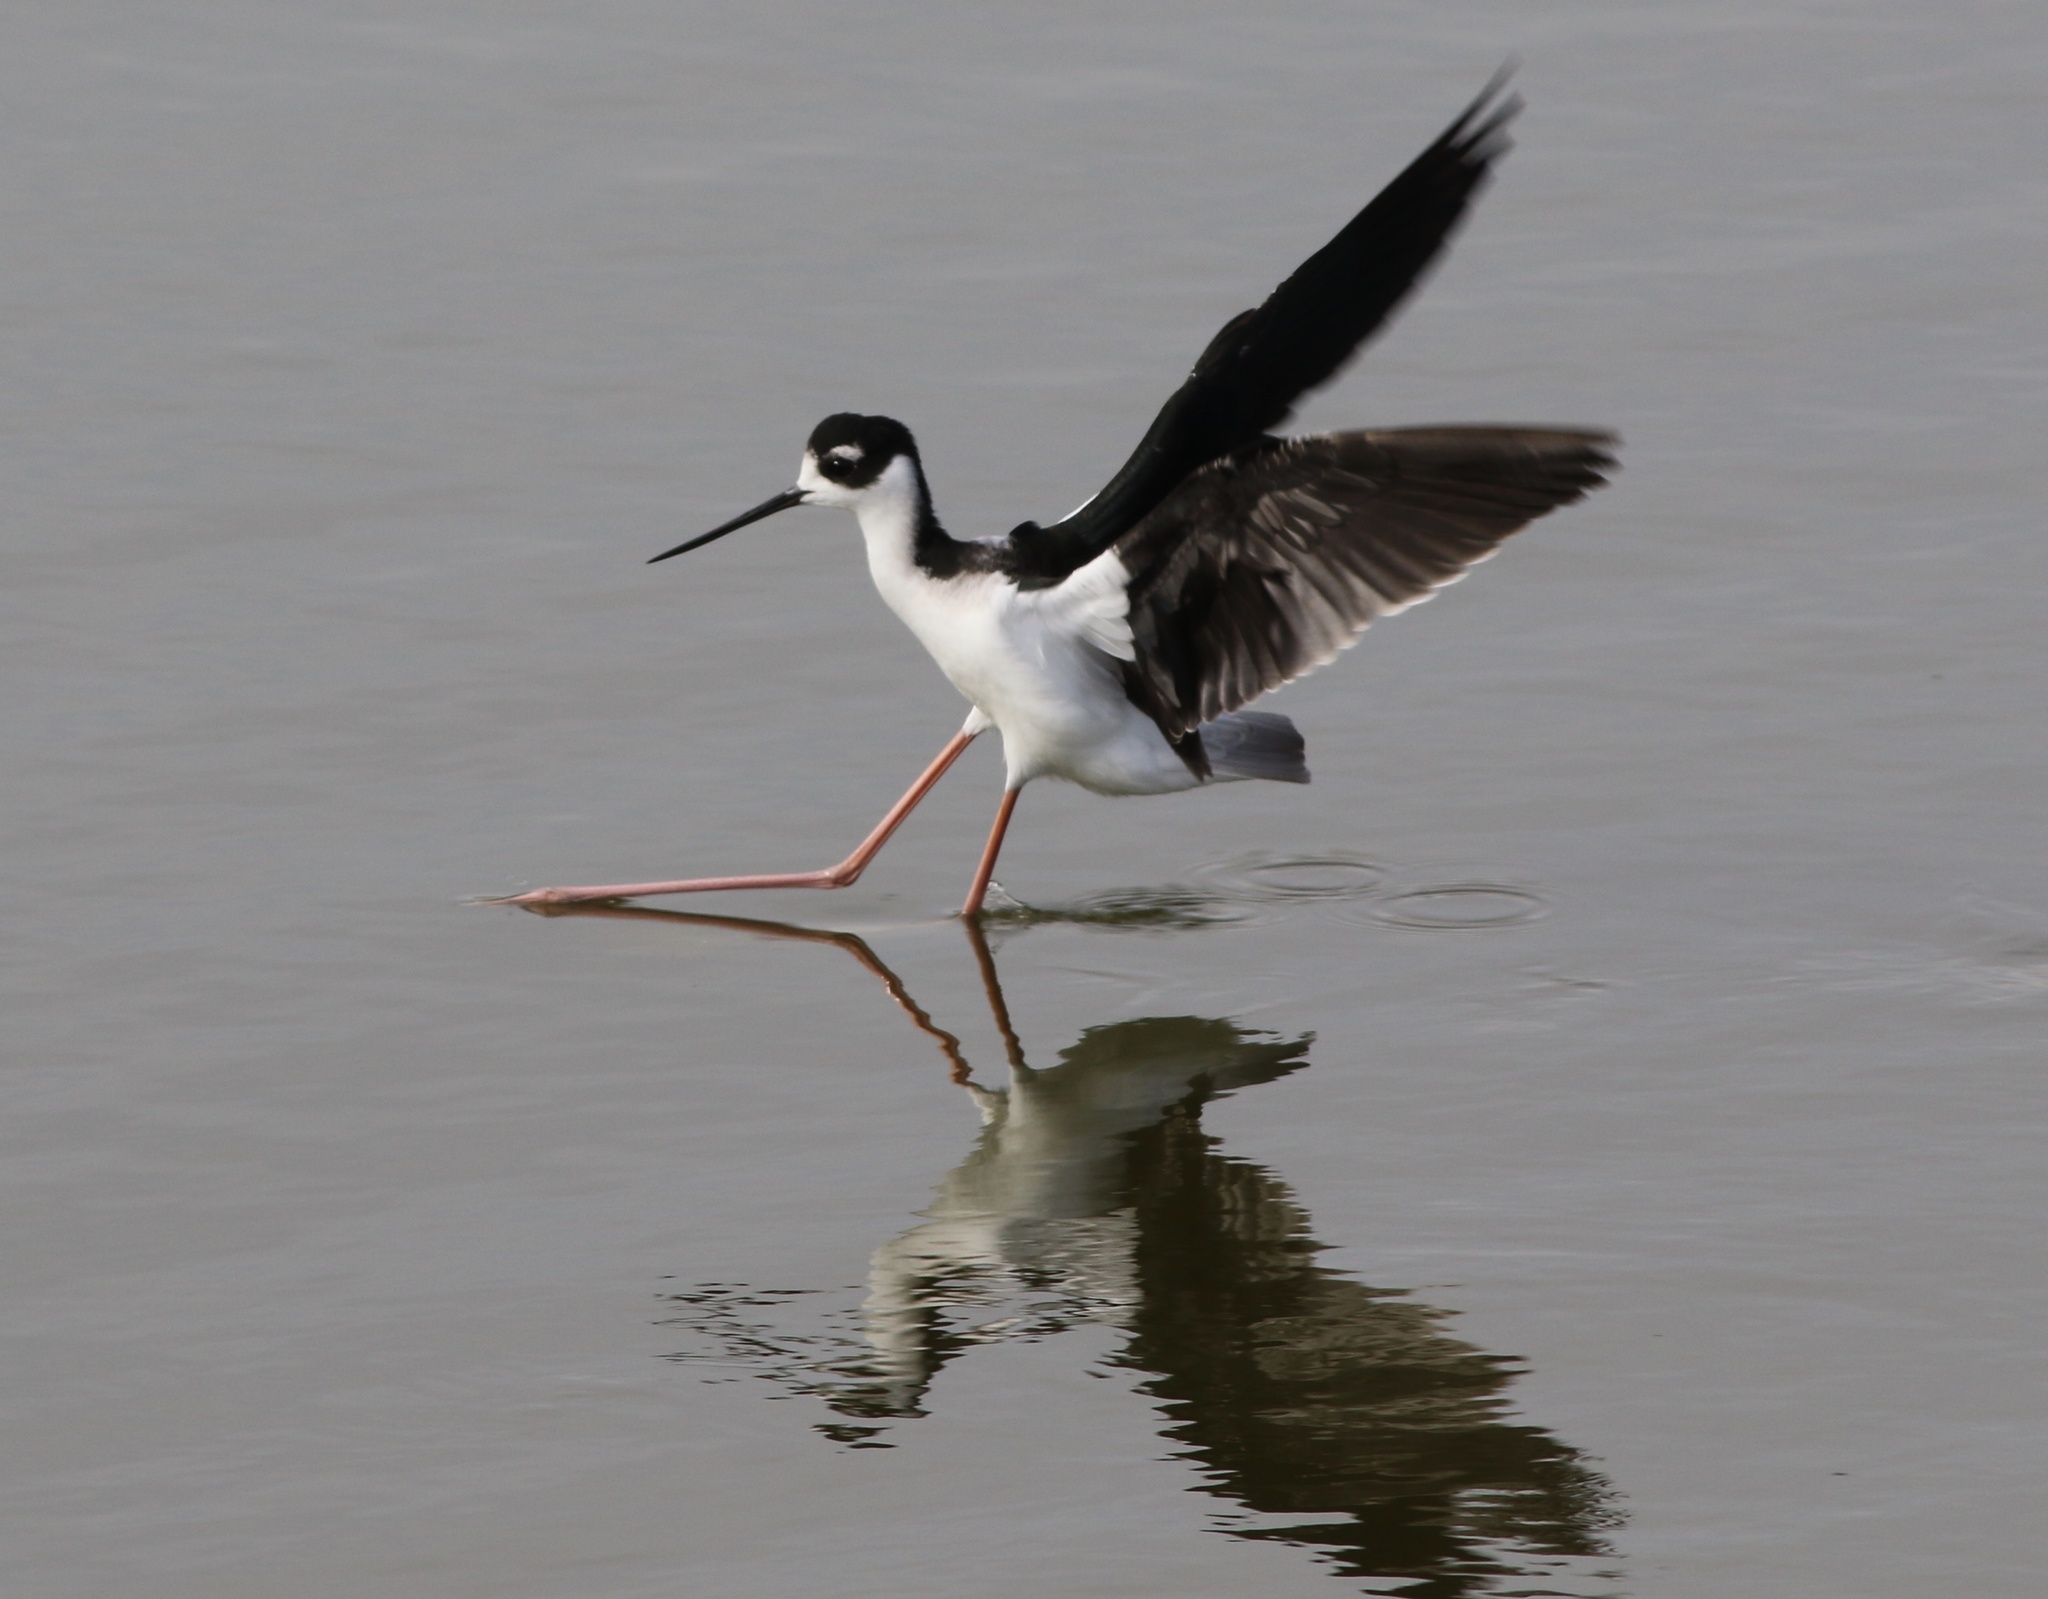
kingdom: Animalia
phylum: Chordata
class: Aves
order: Charadriiformes
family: Recurvirostridae
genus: Himantopus
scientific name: Himantopus mexicanus
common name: Black-necked stilt
